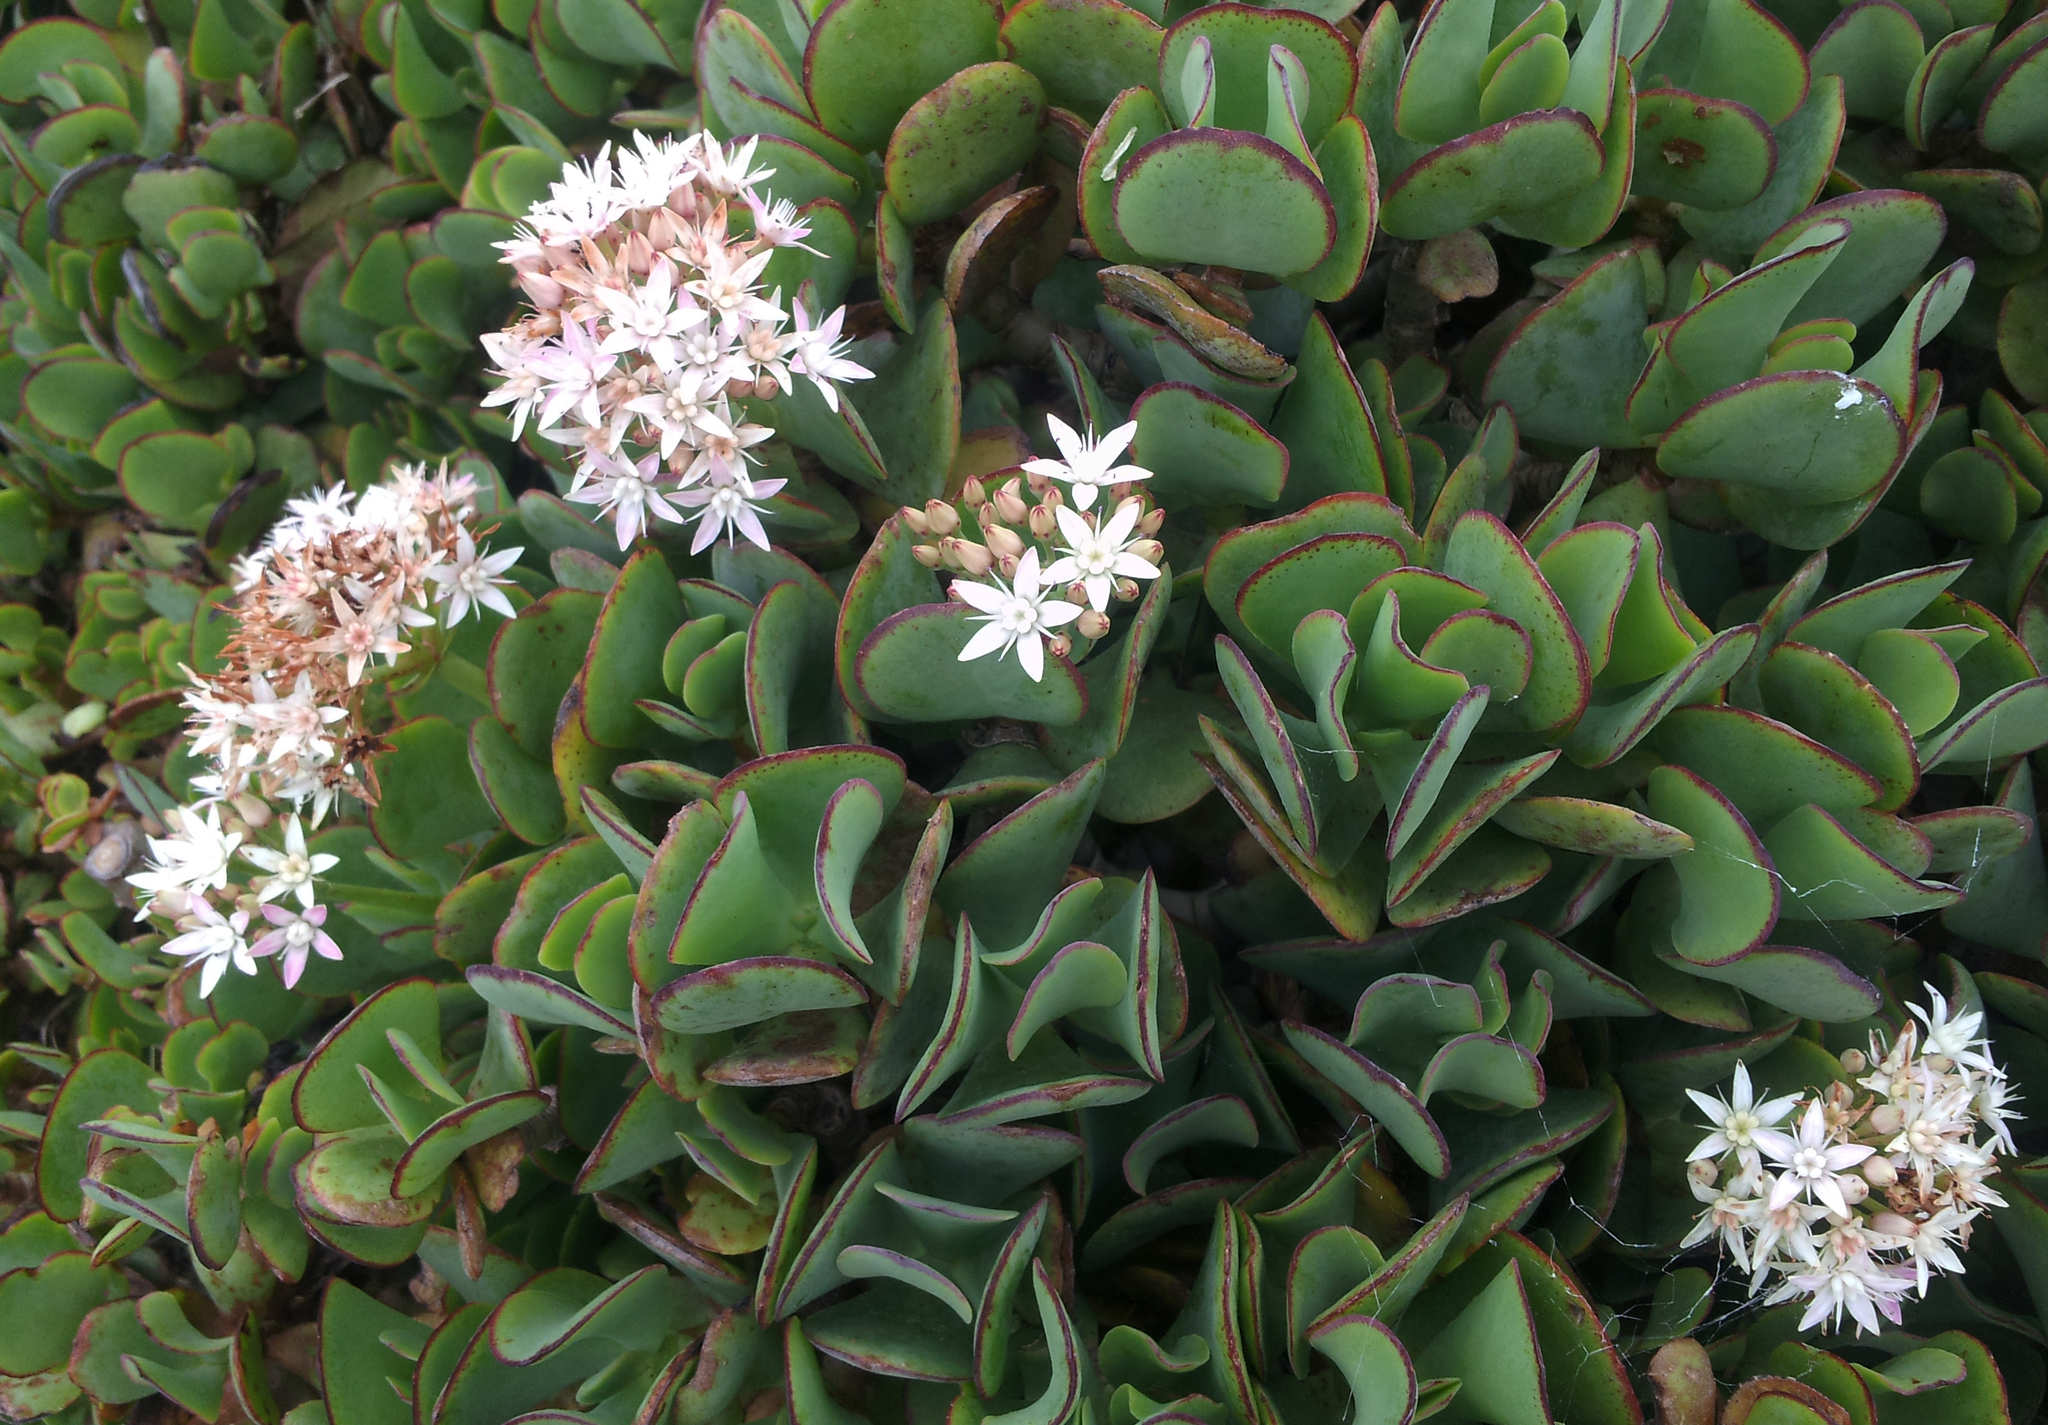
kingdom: Plantae
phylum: Tracheophyta
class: Magnoliopsida
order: Saxifragales
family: Crassulaceae
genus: Crassula
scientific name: Crassula arborescens
